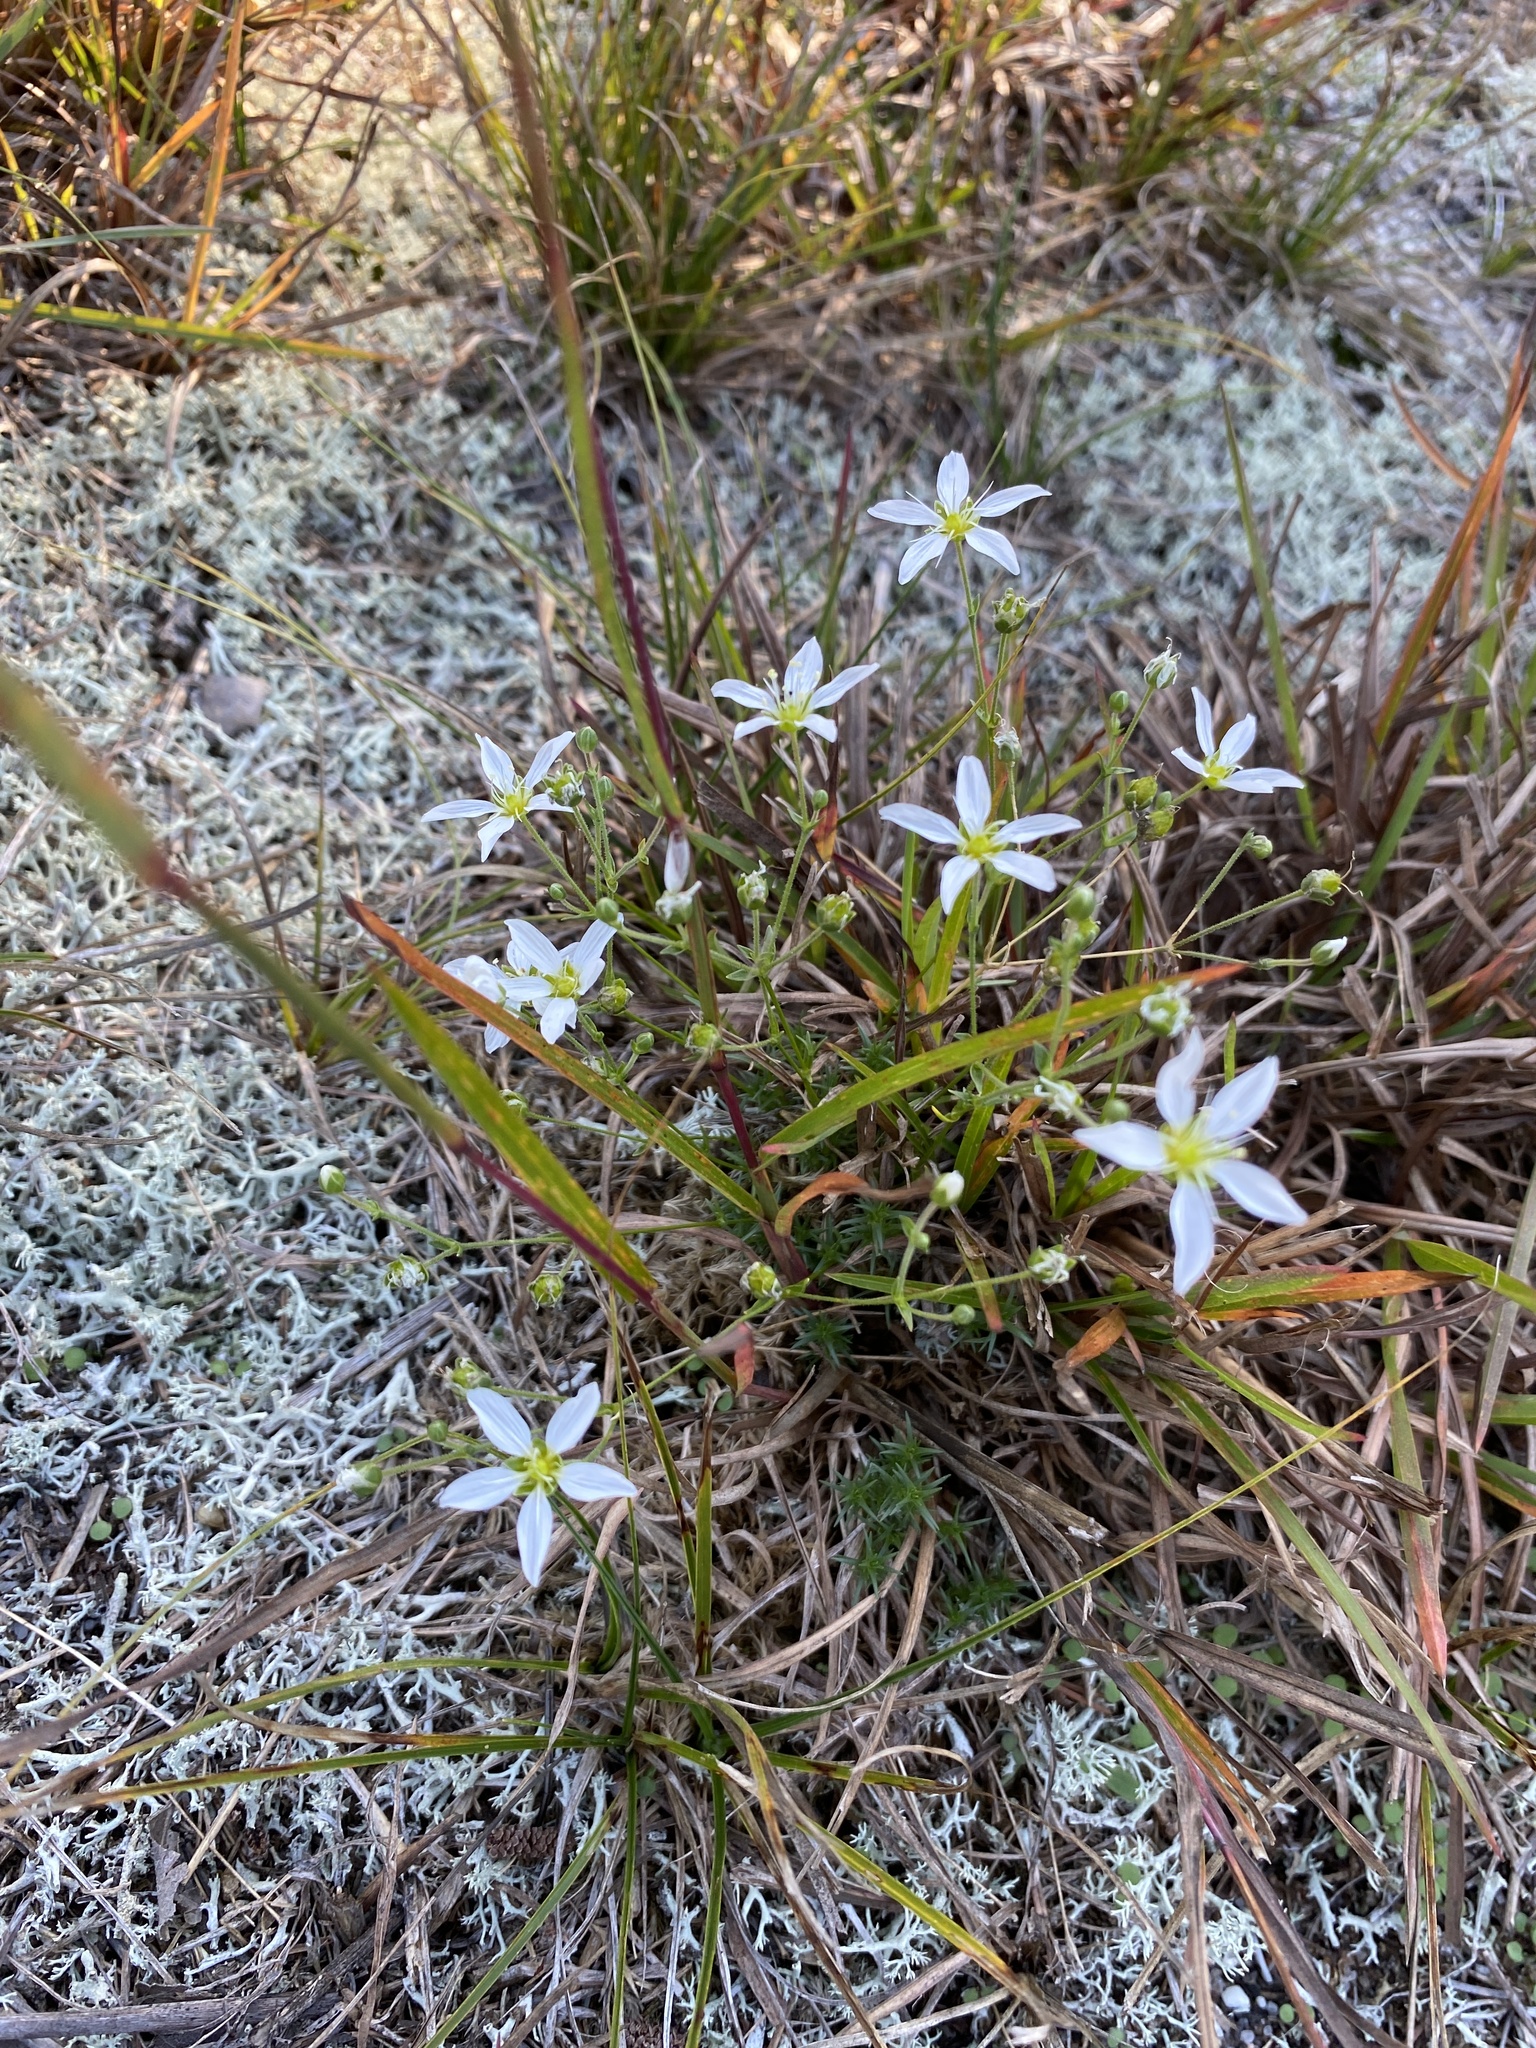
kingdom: Plantae
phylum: Tracheophyta
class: Magnoliopsida
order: Caryophyllales
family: Caryophyllaceae
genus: Geocarpon
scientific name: Geocarpon carolinianum
